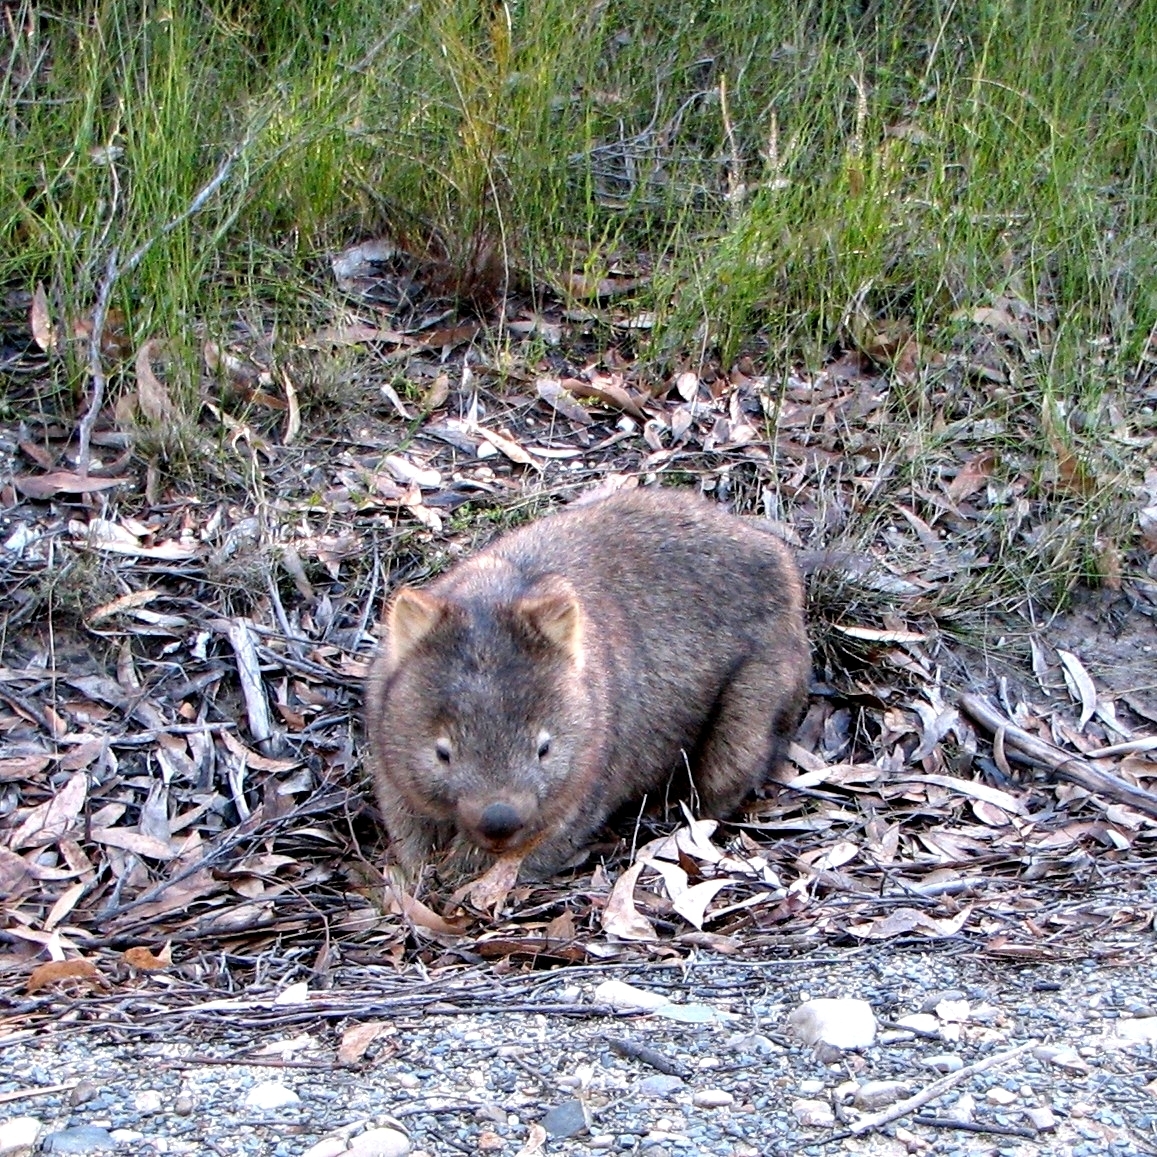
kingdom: Animalia
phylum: Chordata
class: Mammalia
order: Diprotodontia
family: Vombatidae
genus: Vombatus
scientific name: Vombatus ursinus
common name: Common wombat
